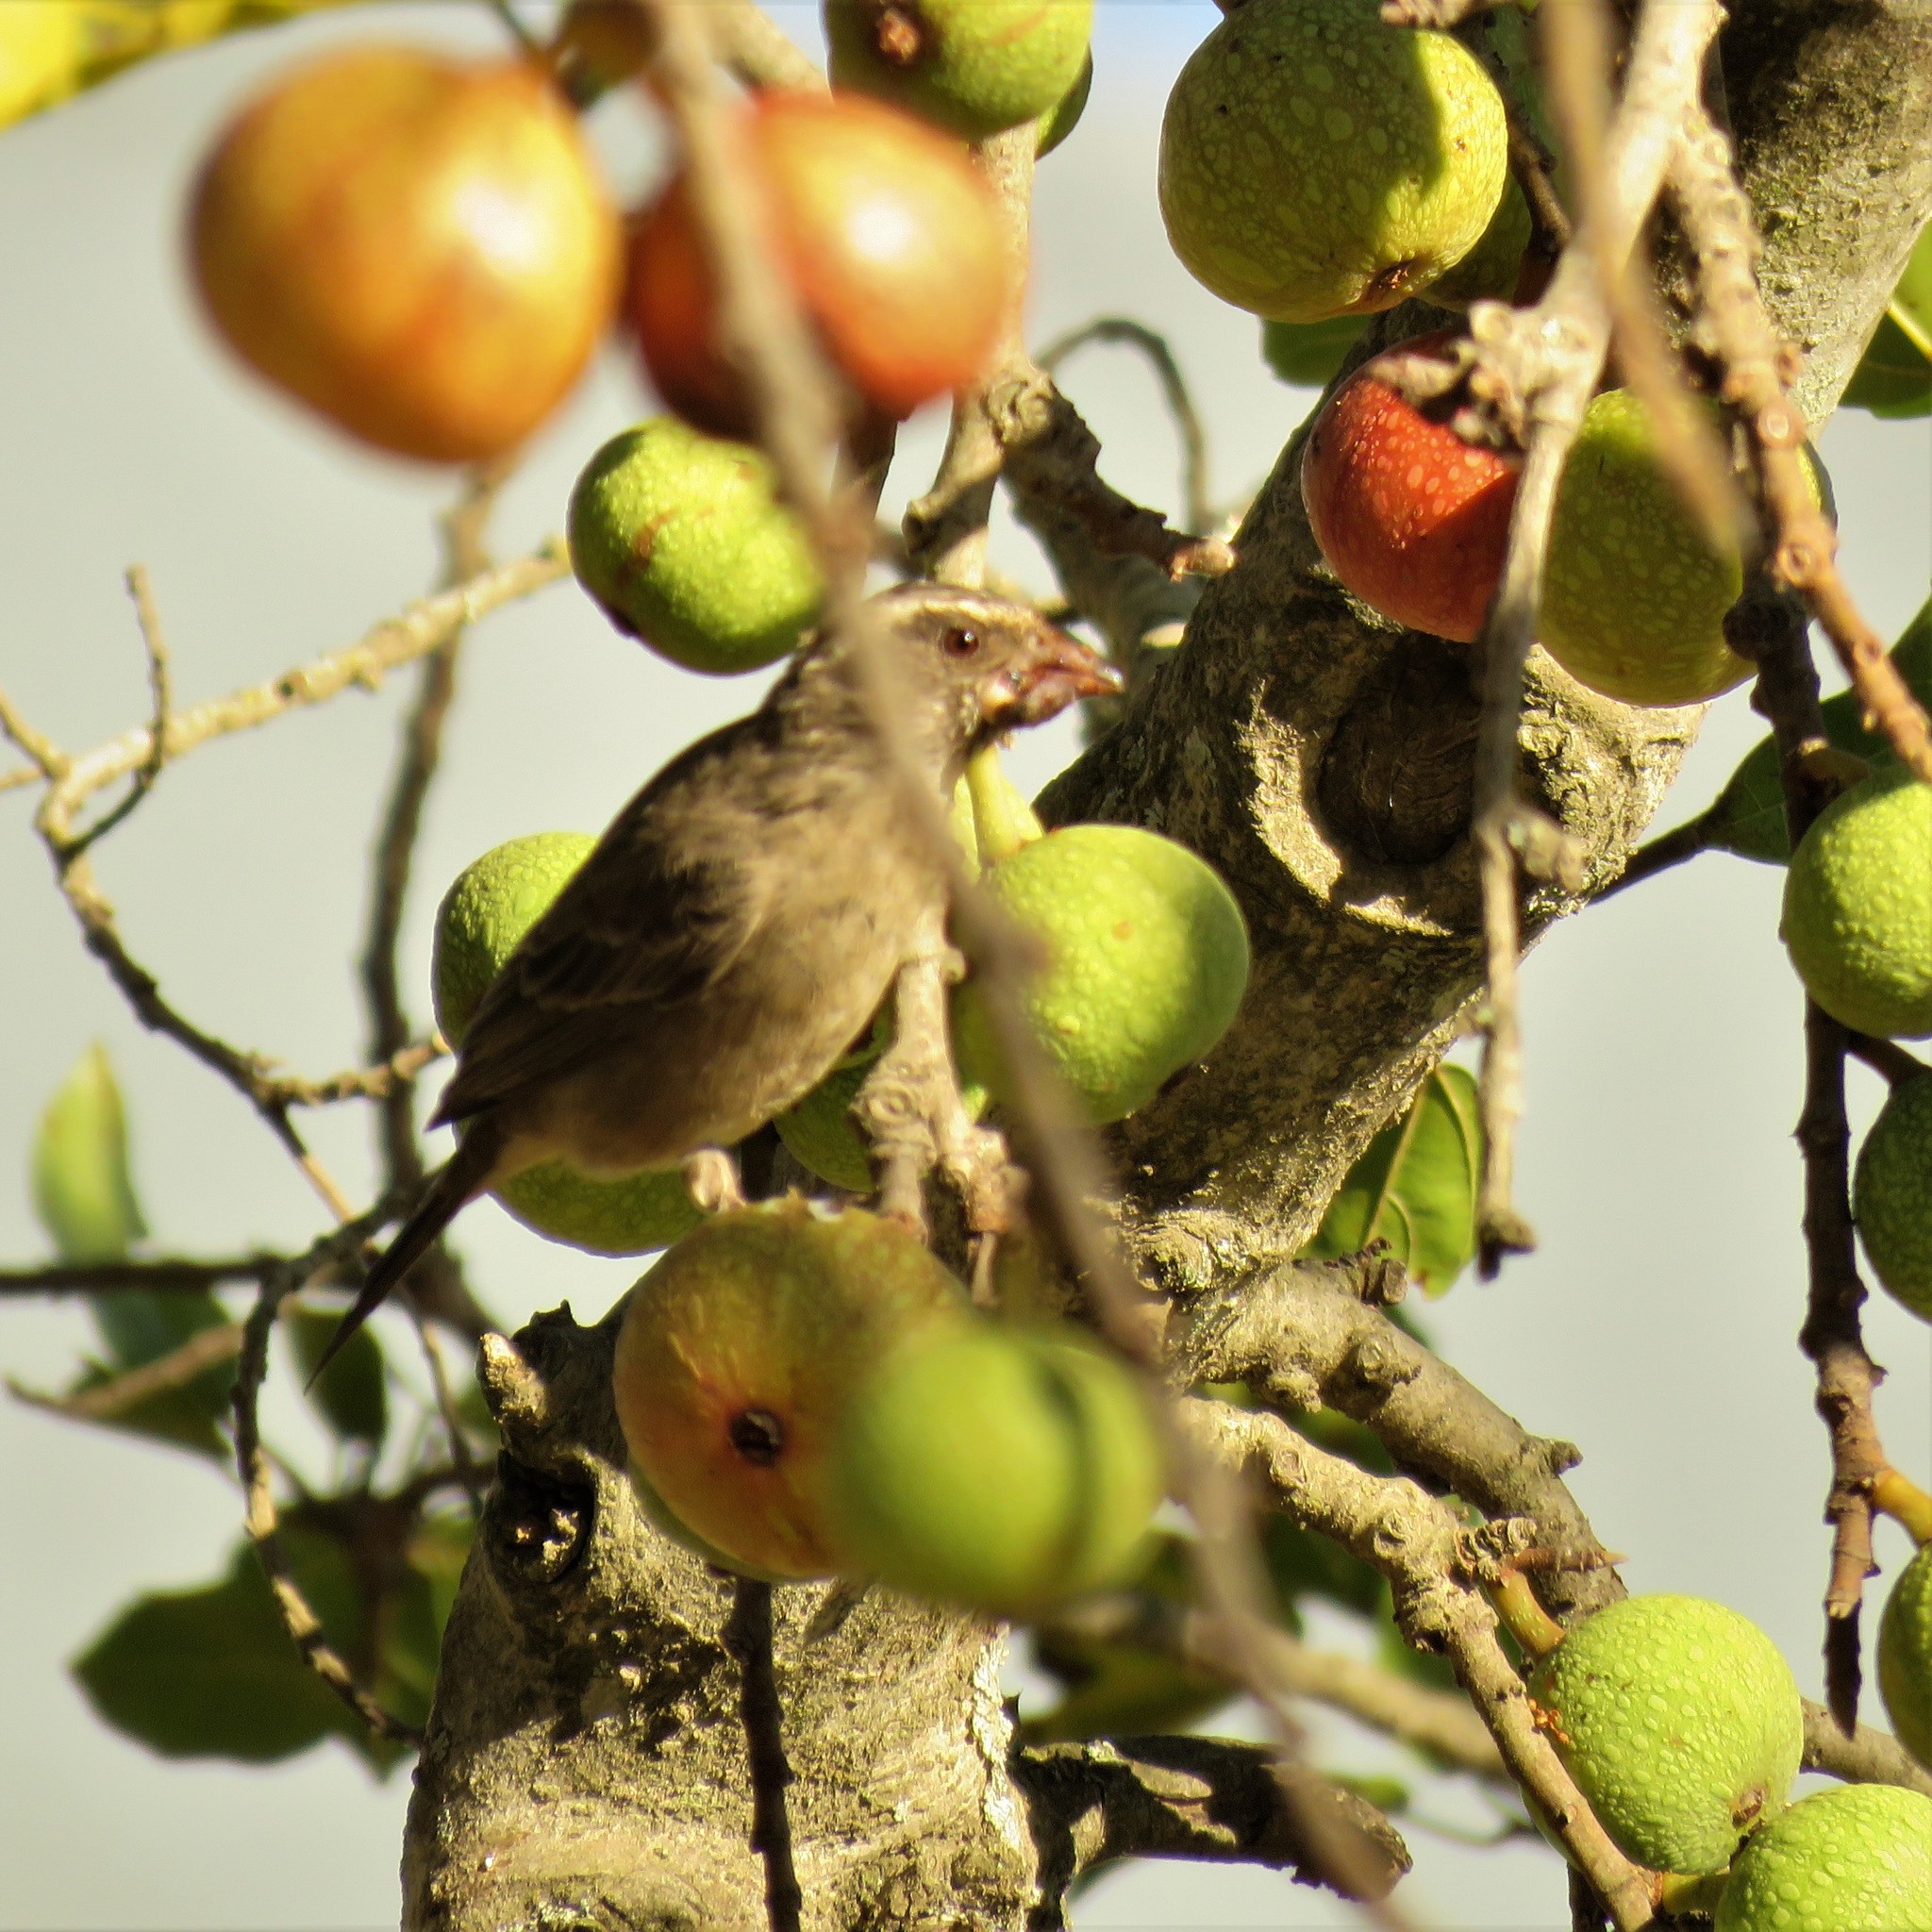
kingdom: Animalia
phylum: Chordata
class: Aves
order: Passeriformes
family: Fringillidae
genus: Crithagra
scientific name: Crithagra gularis
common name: Streaky-headed seedeater
